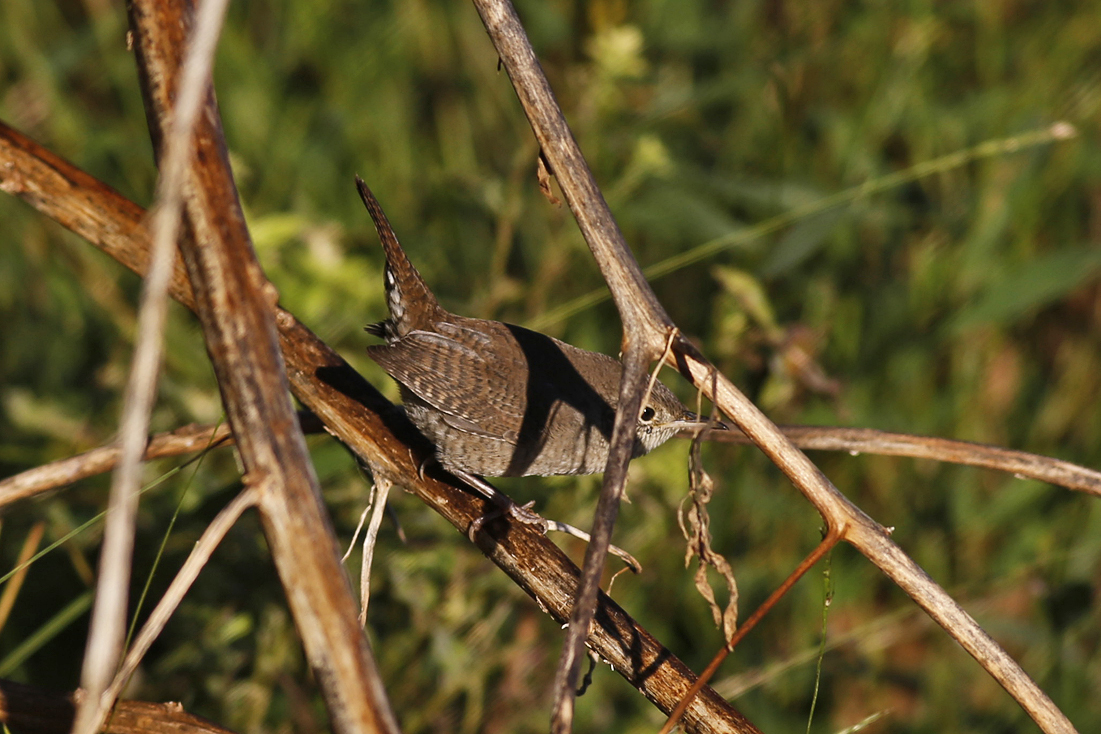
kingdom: Animalia
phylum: Chordata
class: Aves
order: Passeriformes
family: Troglodytidae
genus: Troglodytes
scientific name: Troglodytes aedon
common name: House wren
